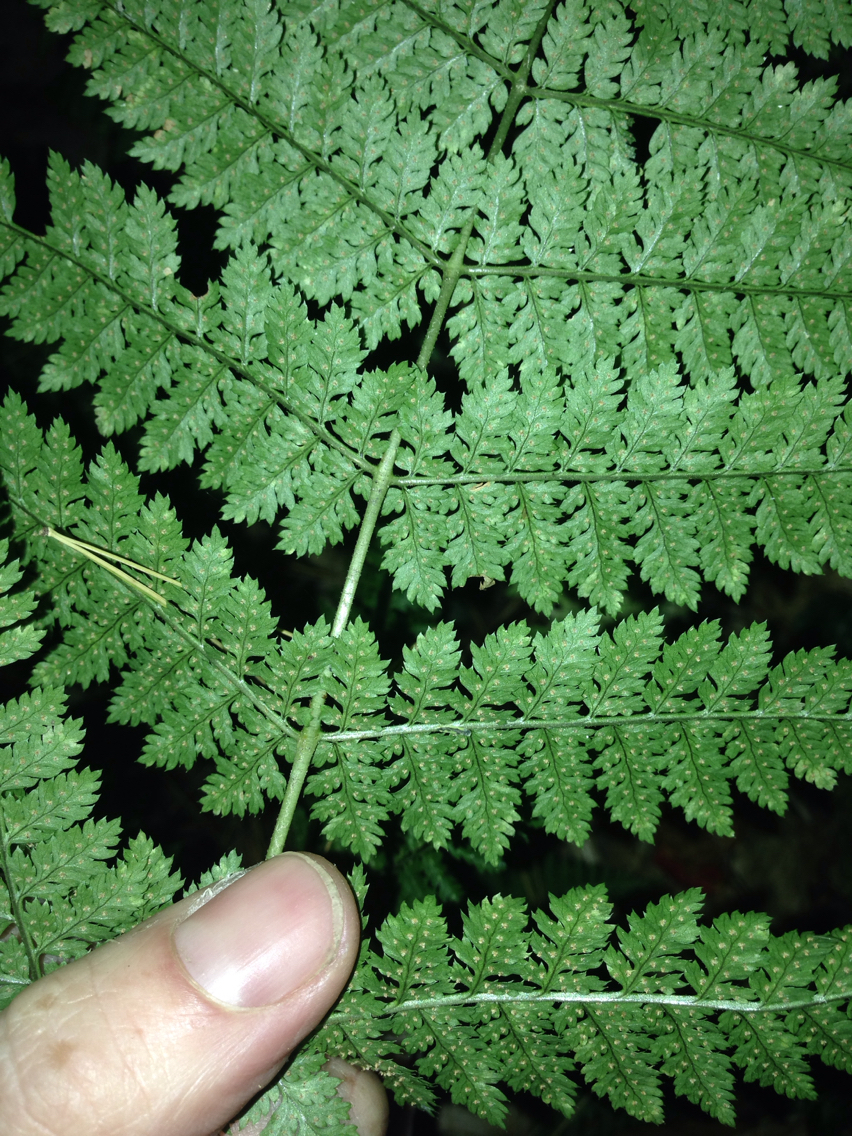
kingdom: Plantae
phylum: Tracheophyta
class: Polypodiopsida
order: Polypodiales
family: Dryopteridaceae
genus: Dryopteris
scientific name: Dryopteris intermedia
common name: Evergreen wood fern
